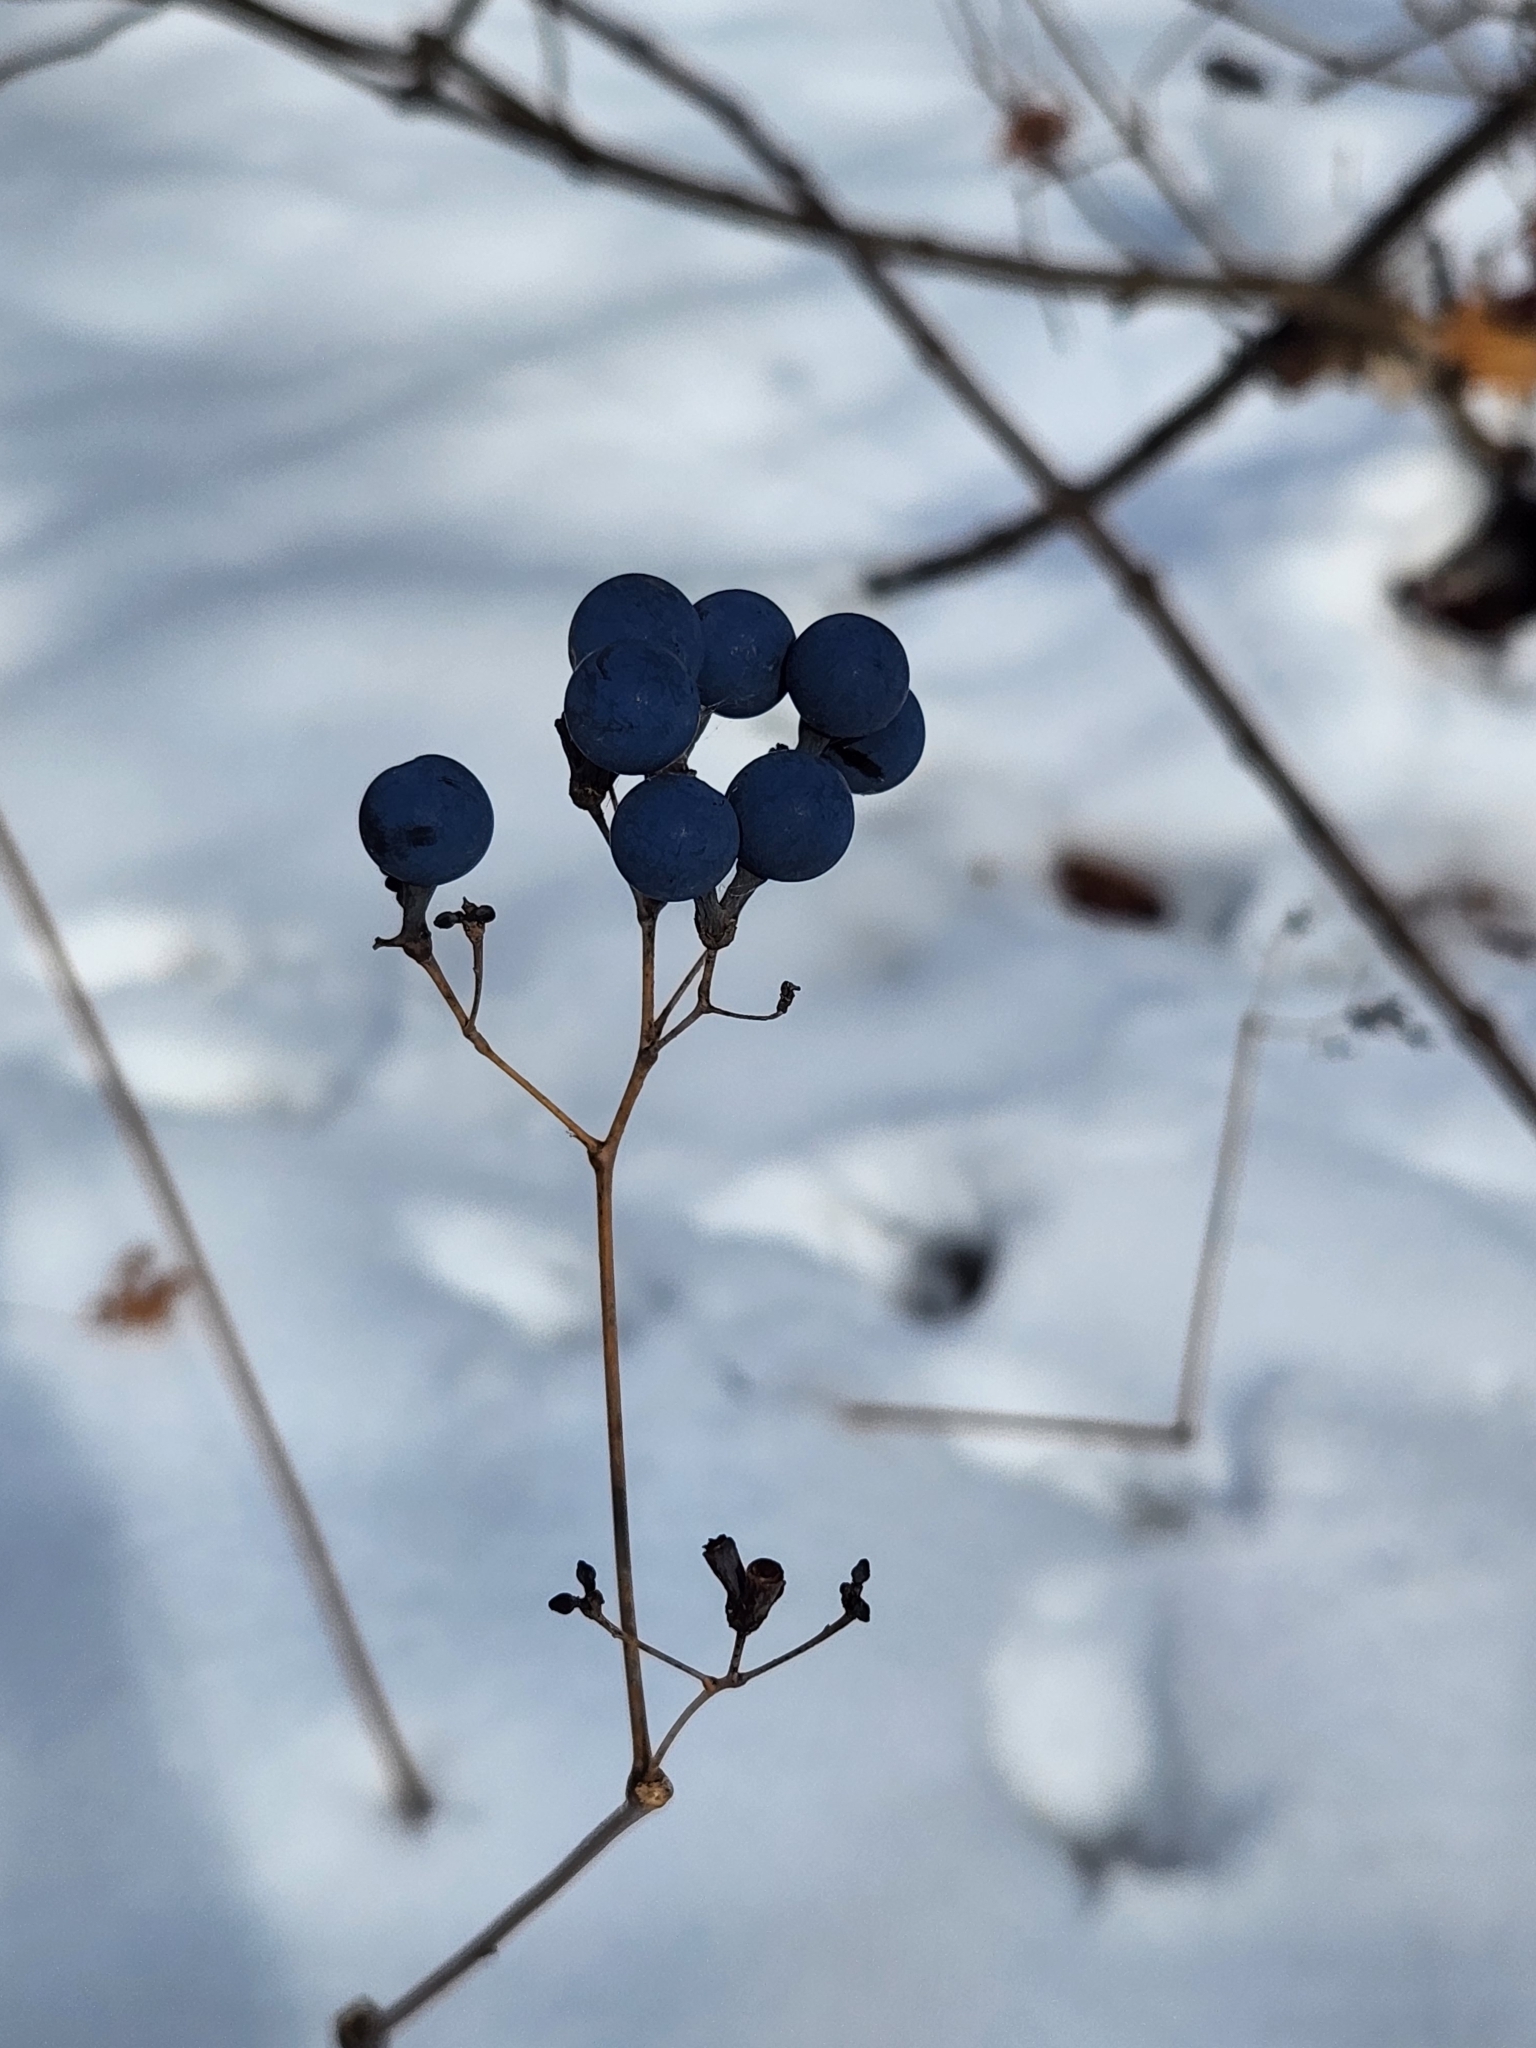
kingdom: Plantae
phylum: Tracheophyta
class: Magnoliopsida
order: Ranunculales
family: Berberidaceae
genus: Caulophyllum
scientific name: Caulophyllum thalictroides
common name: Blue cohosh
